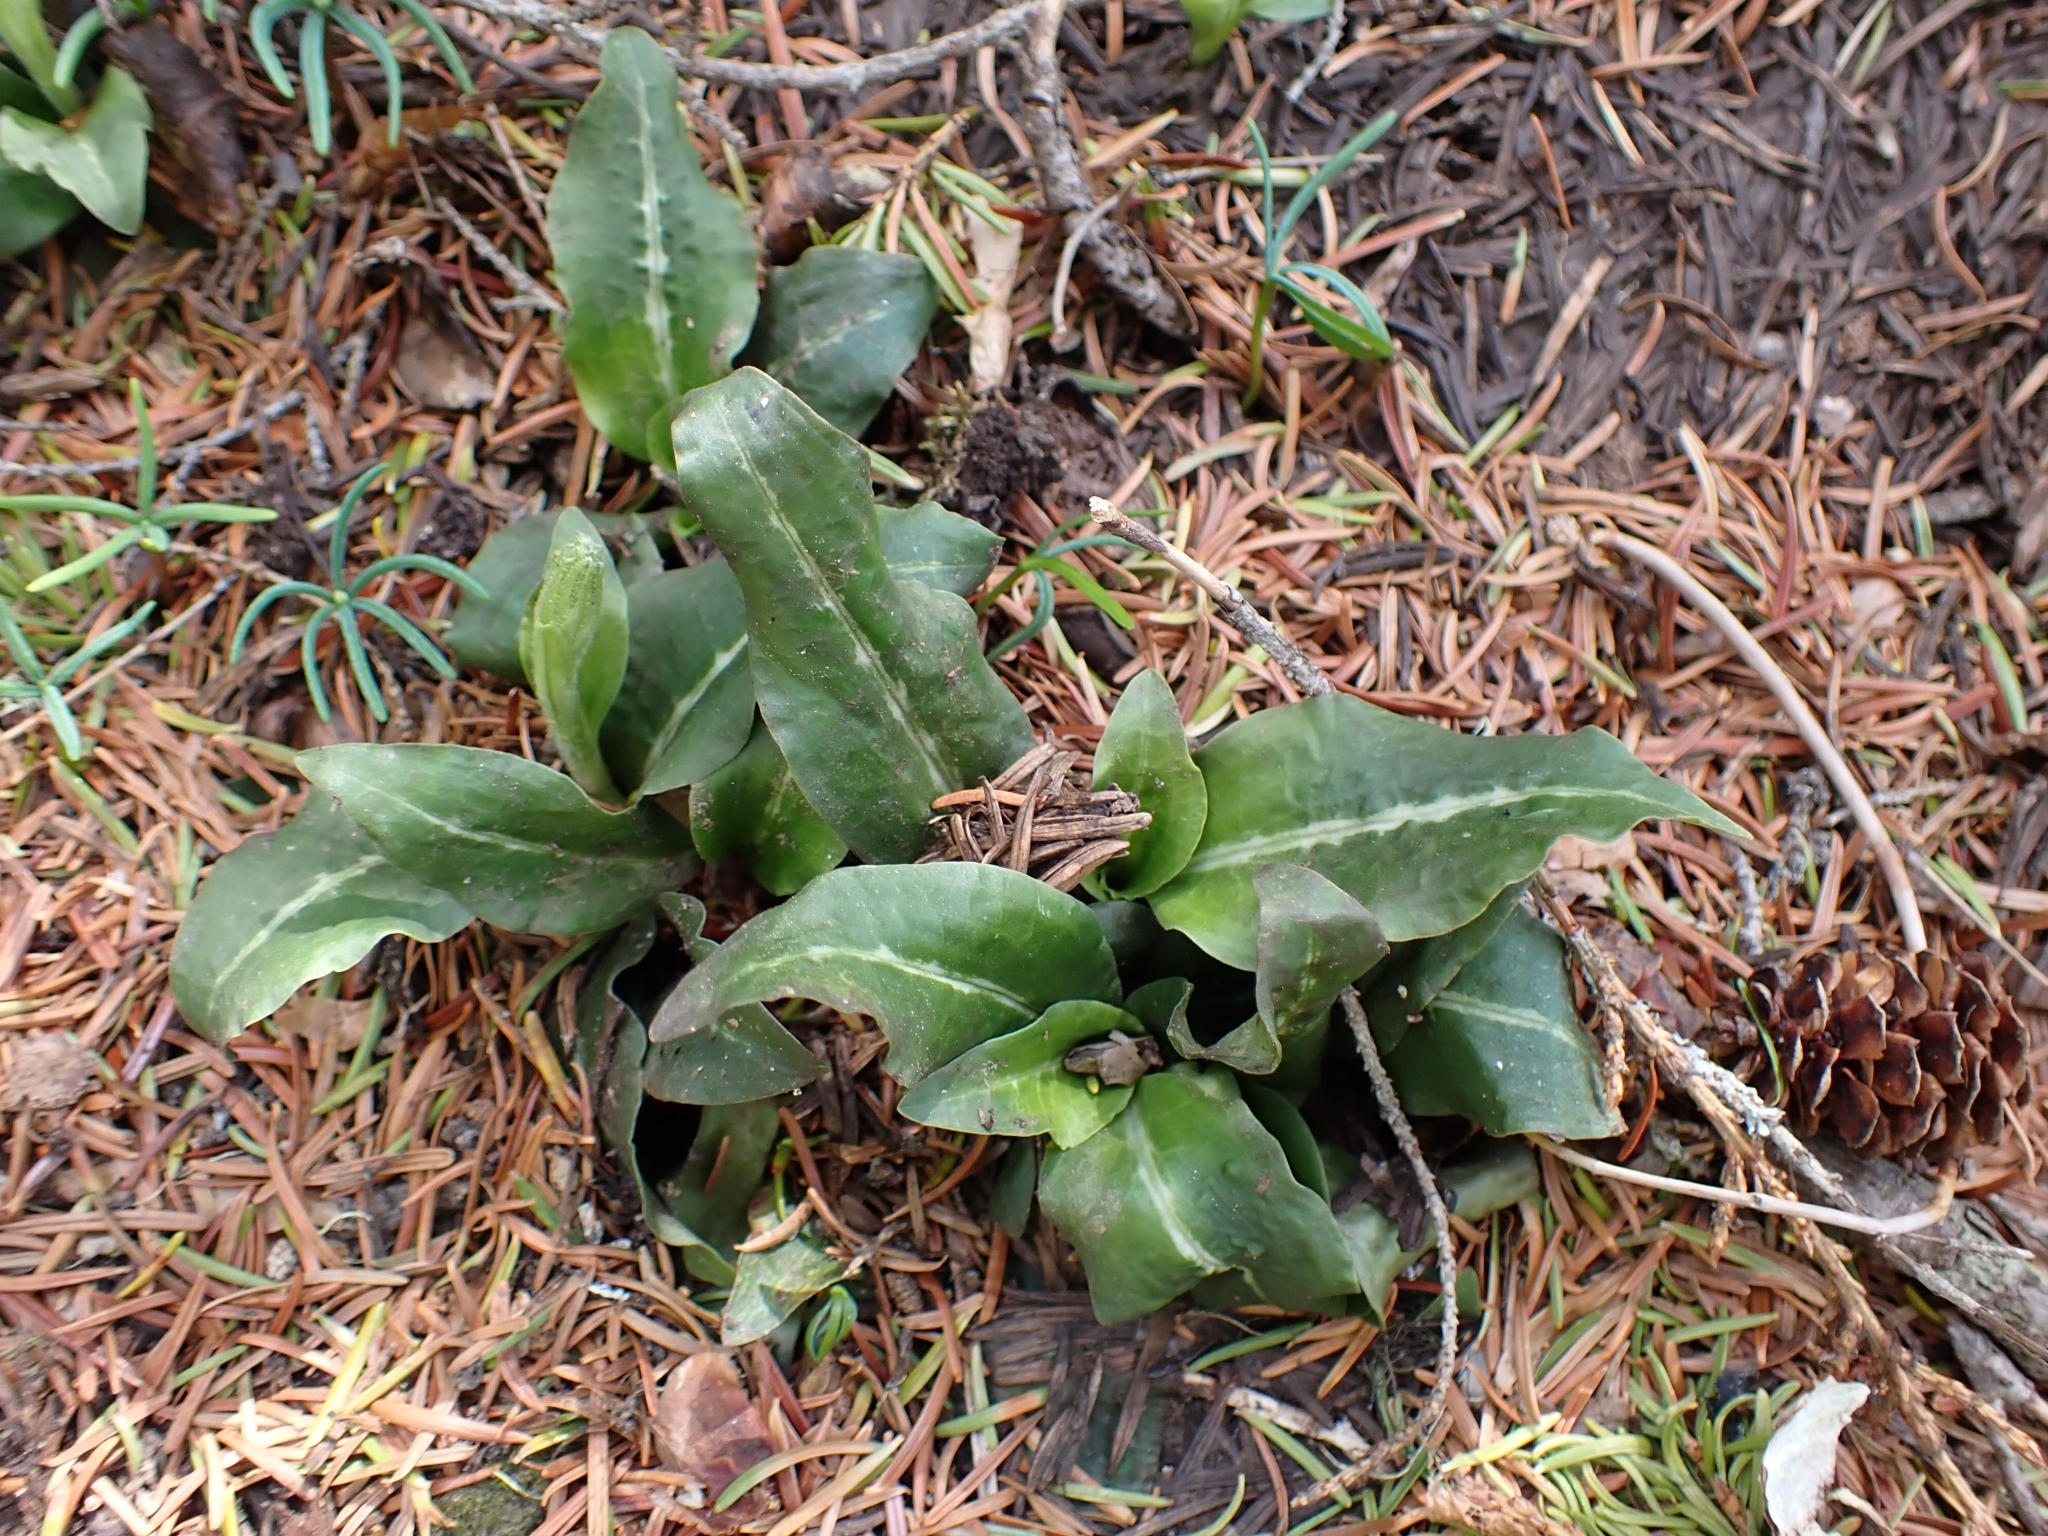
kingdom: Plantae
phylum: Tracheophyta
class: Liliopsida
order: Asparagales
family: Orchidaceae
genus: Goodyera
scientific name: Goodyera oblongifolia
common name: Giant rattlesnake-plantain
